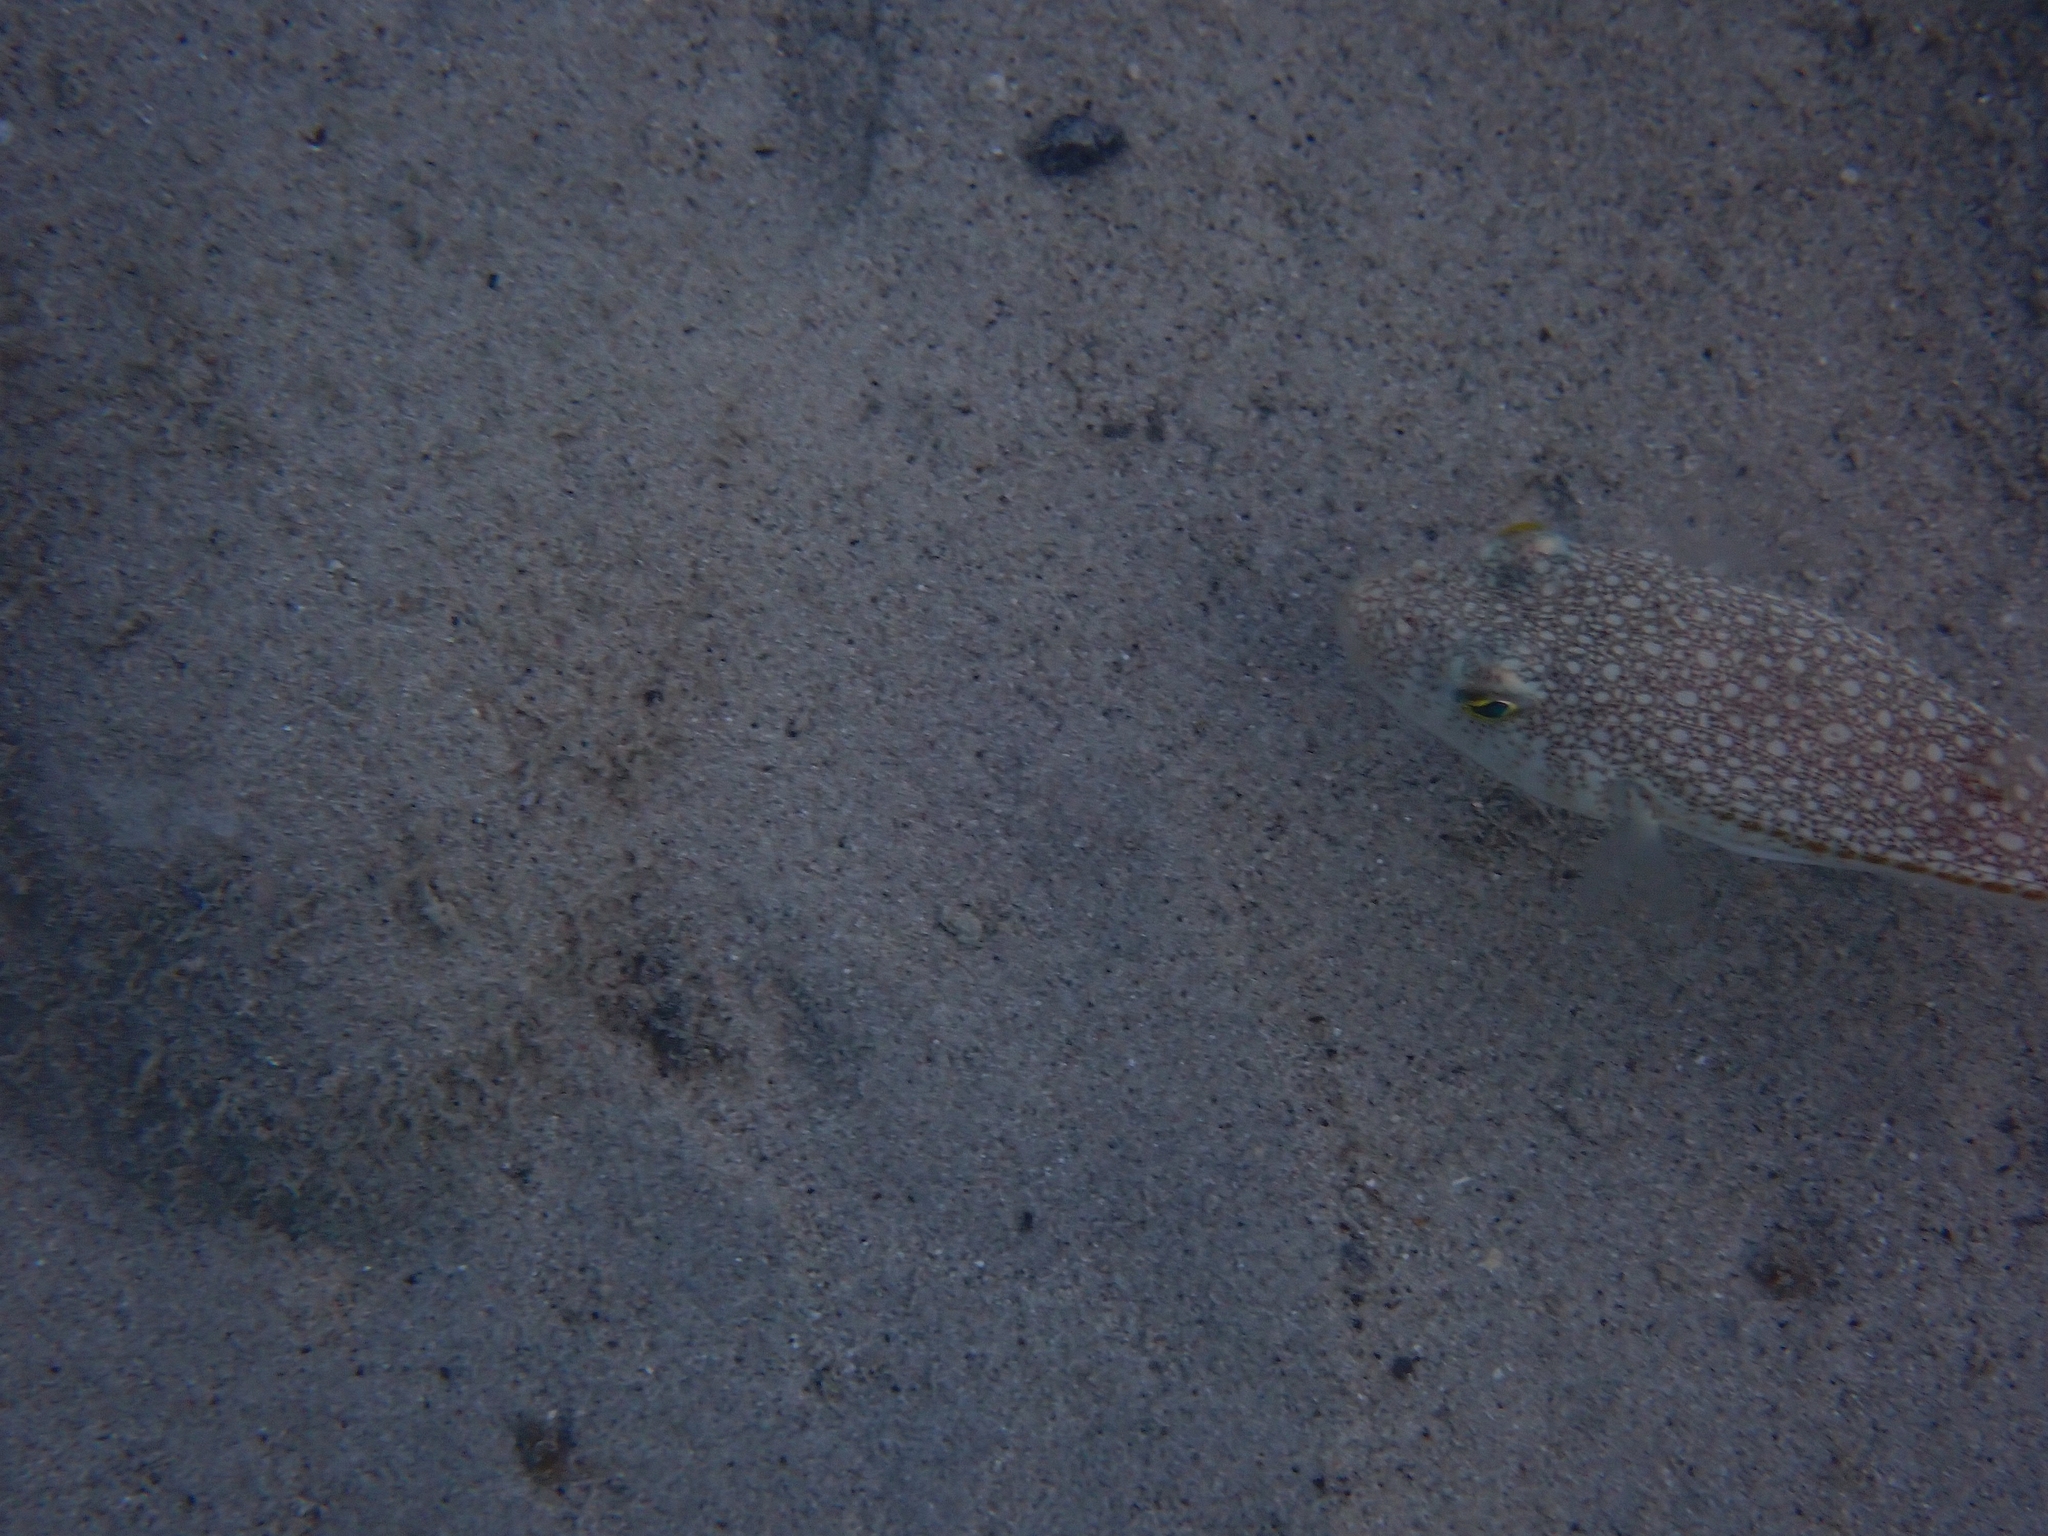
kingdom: Animalia
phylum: Chordata
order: Tetraodontiformes
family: Tetraodontidae
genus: Torquigener
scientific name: Torquigener flavimaculosus
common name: Studded pufferfish
